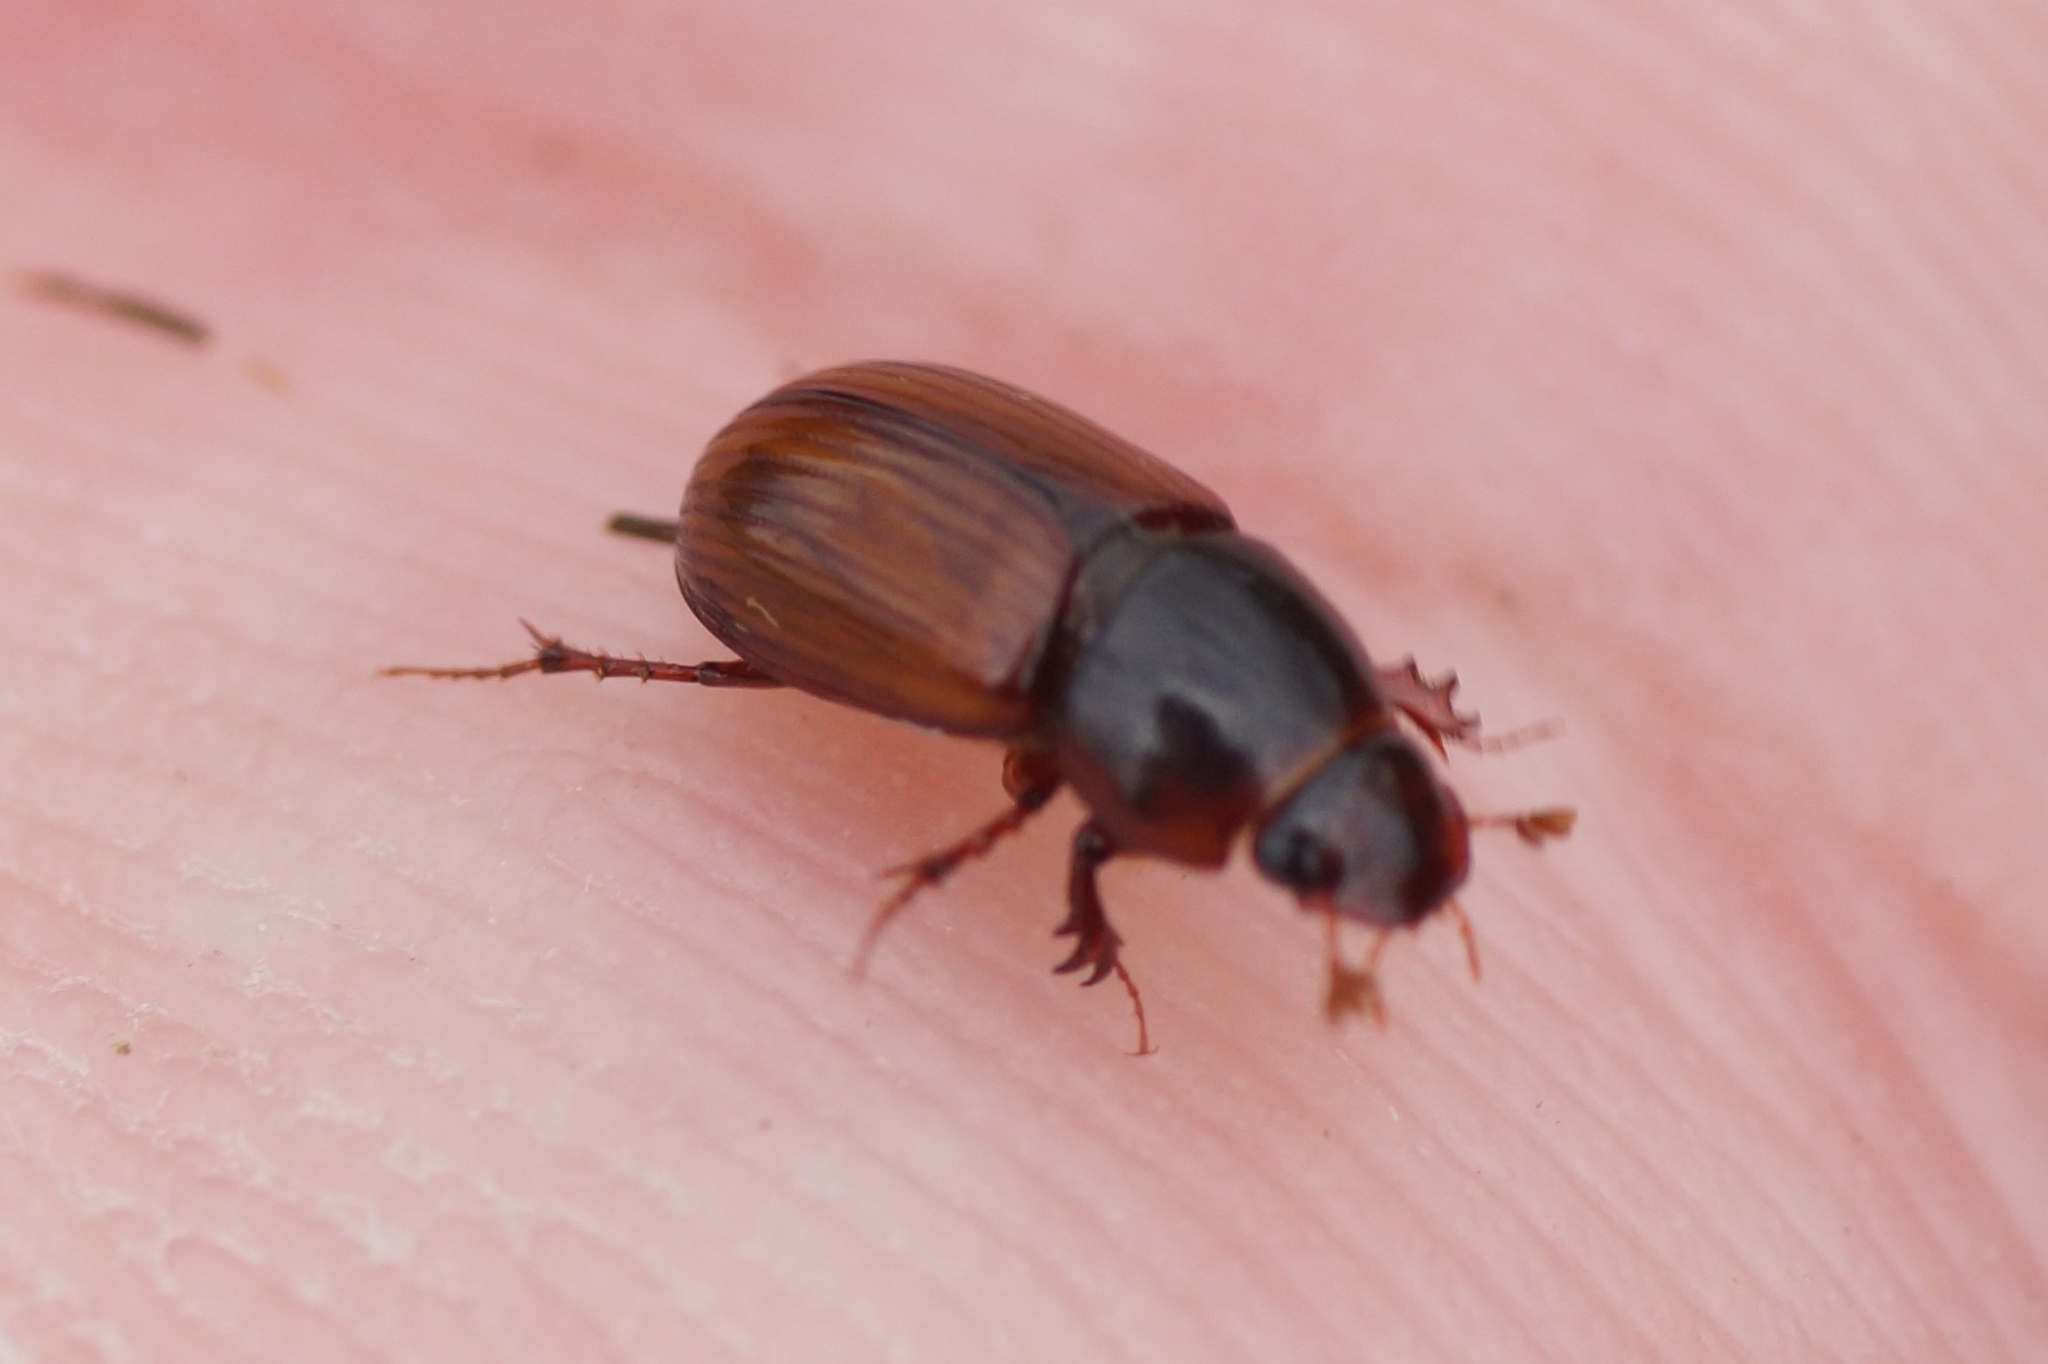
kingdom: Animalia
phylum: Arthropoda
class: Insecta
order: Coleoptera
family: Scarabaeidae
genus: Bodilopsis
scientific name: Bodilopsis rufus
